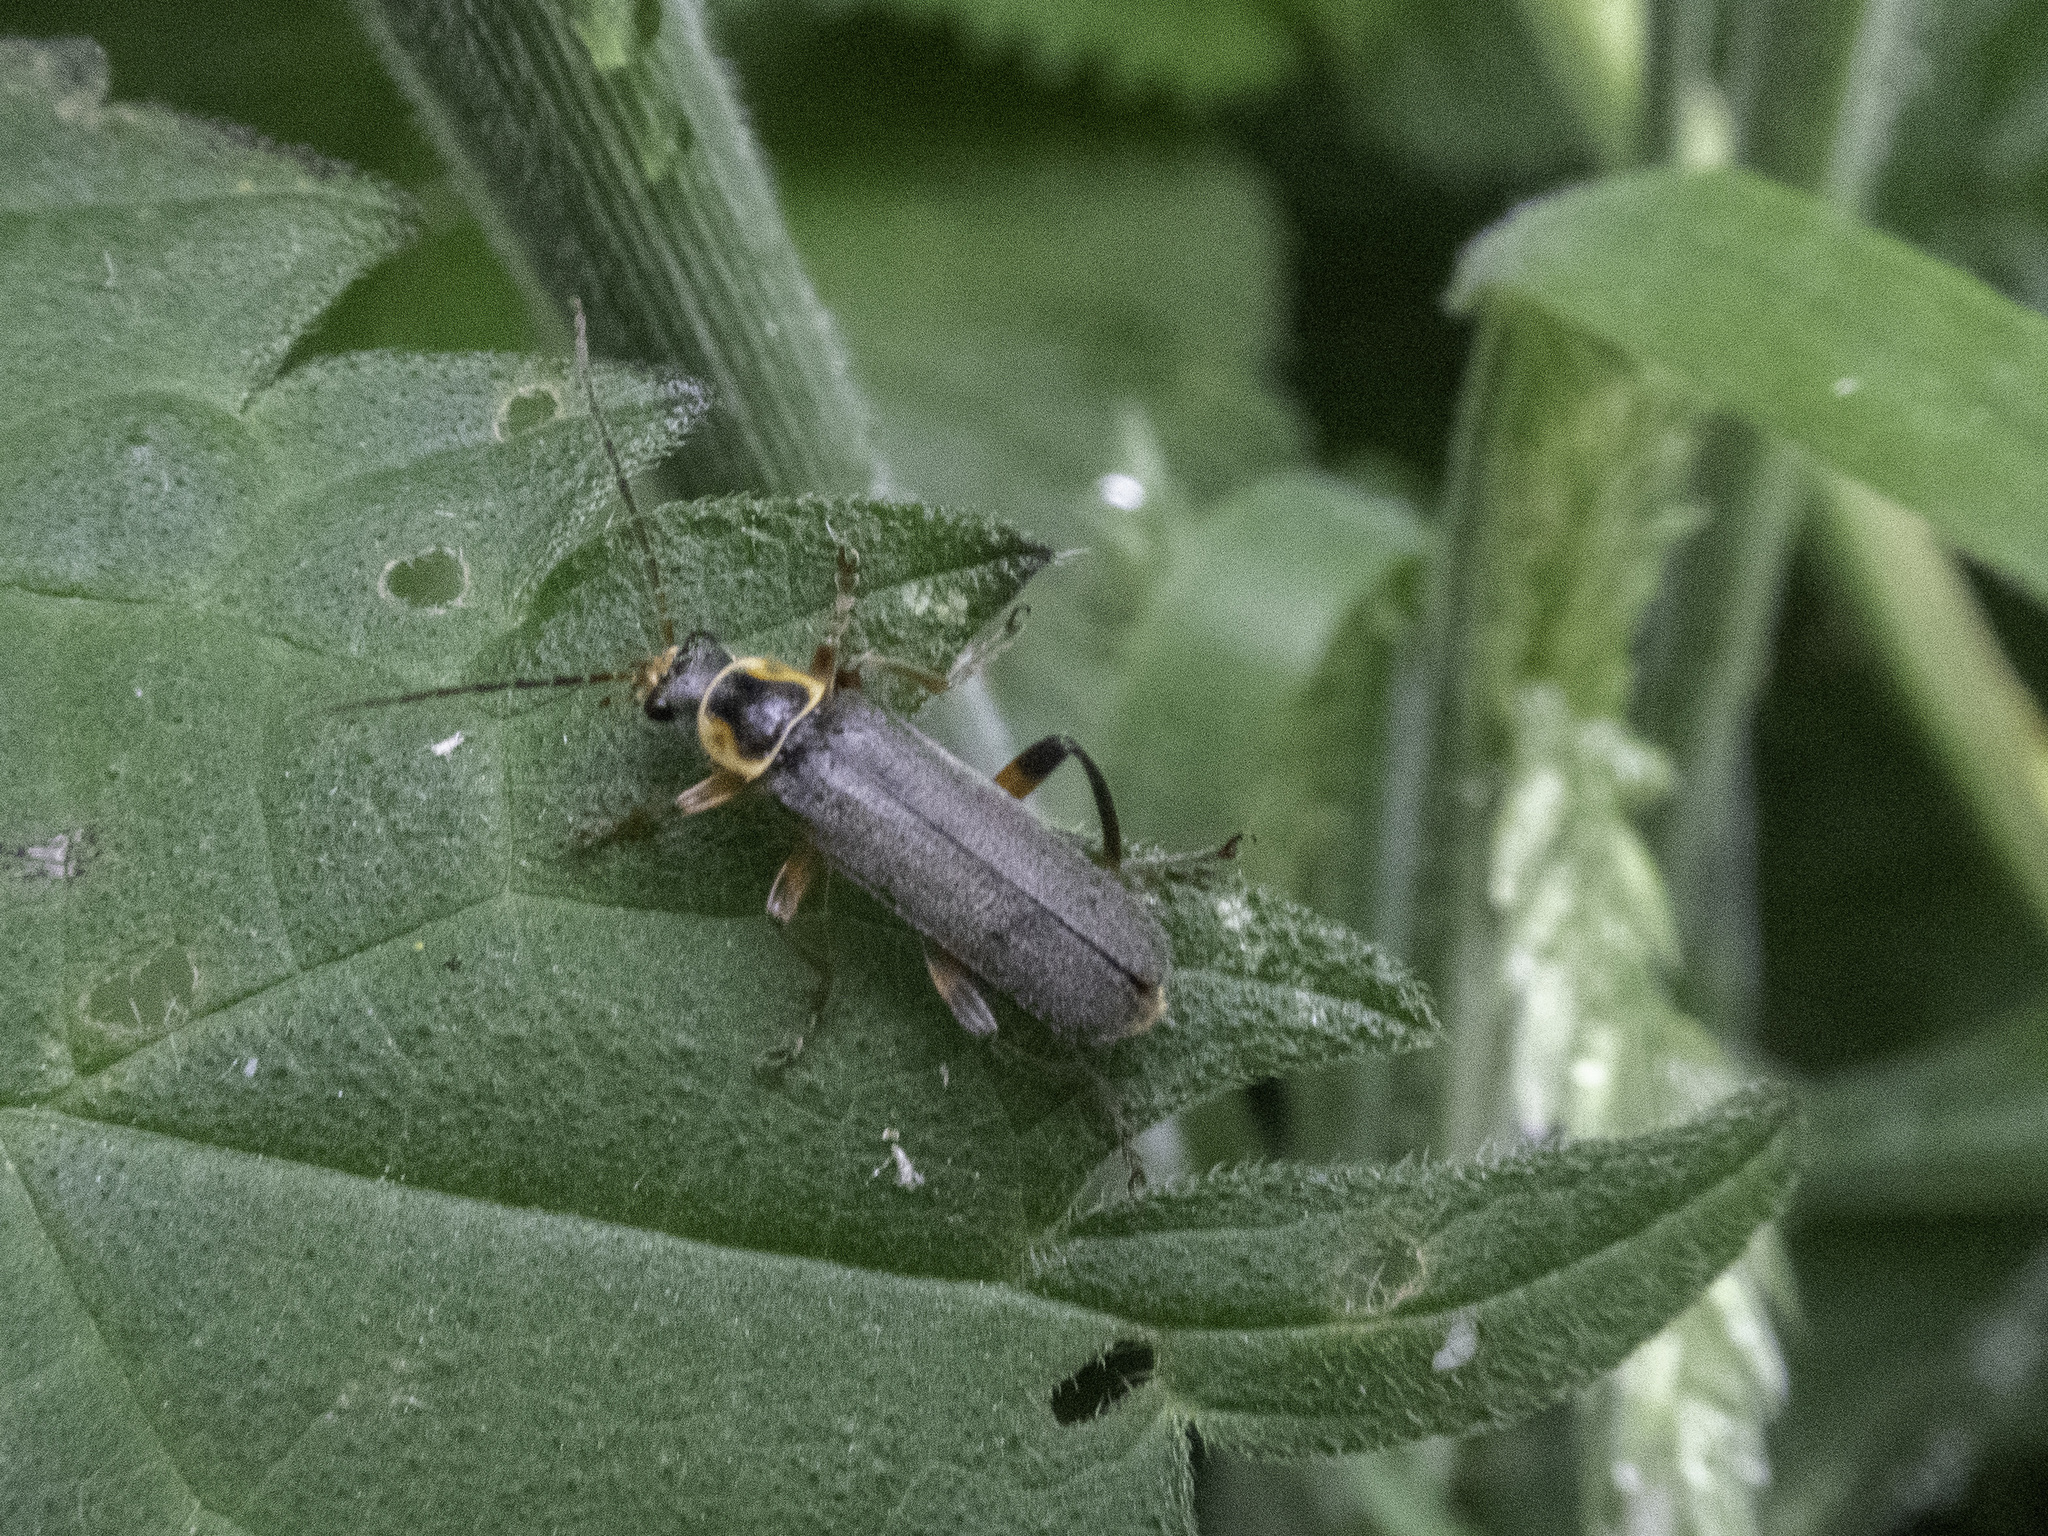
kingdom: Animalia
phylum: Arthropoda
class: Insecta
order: Coleoptera
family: Cantharidae
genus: Cantharis
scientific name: Cantharis nigricans
